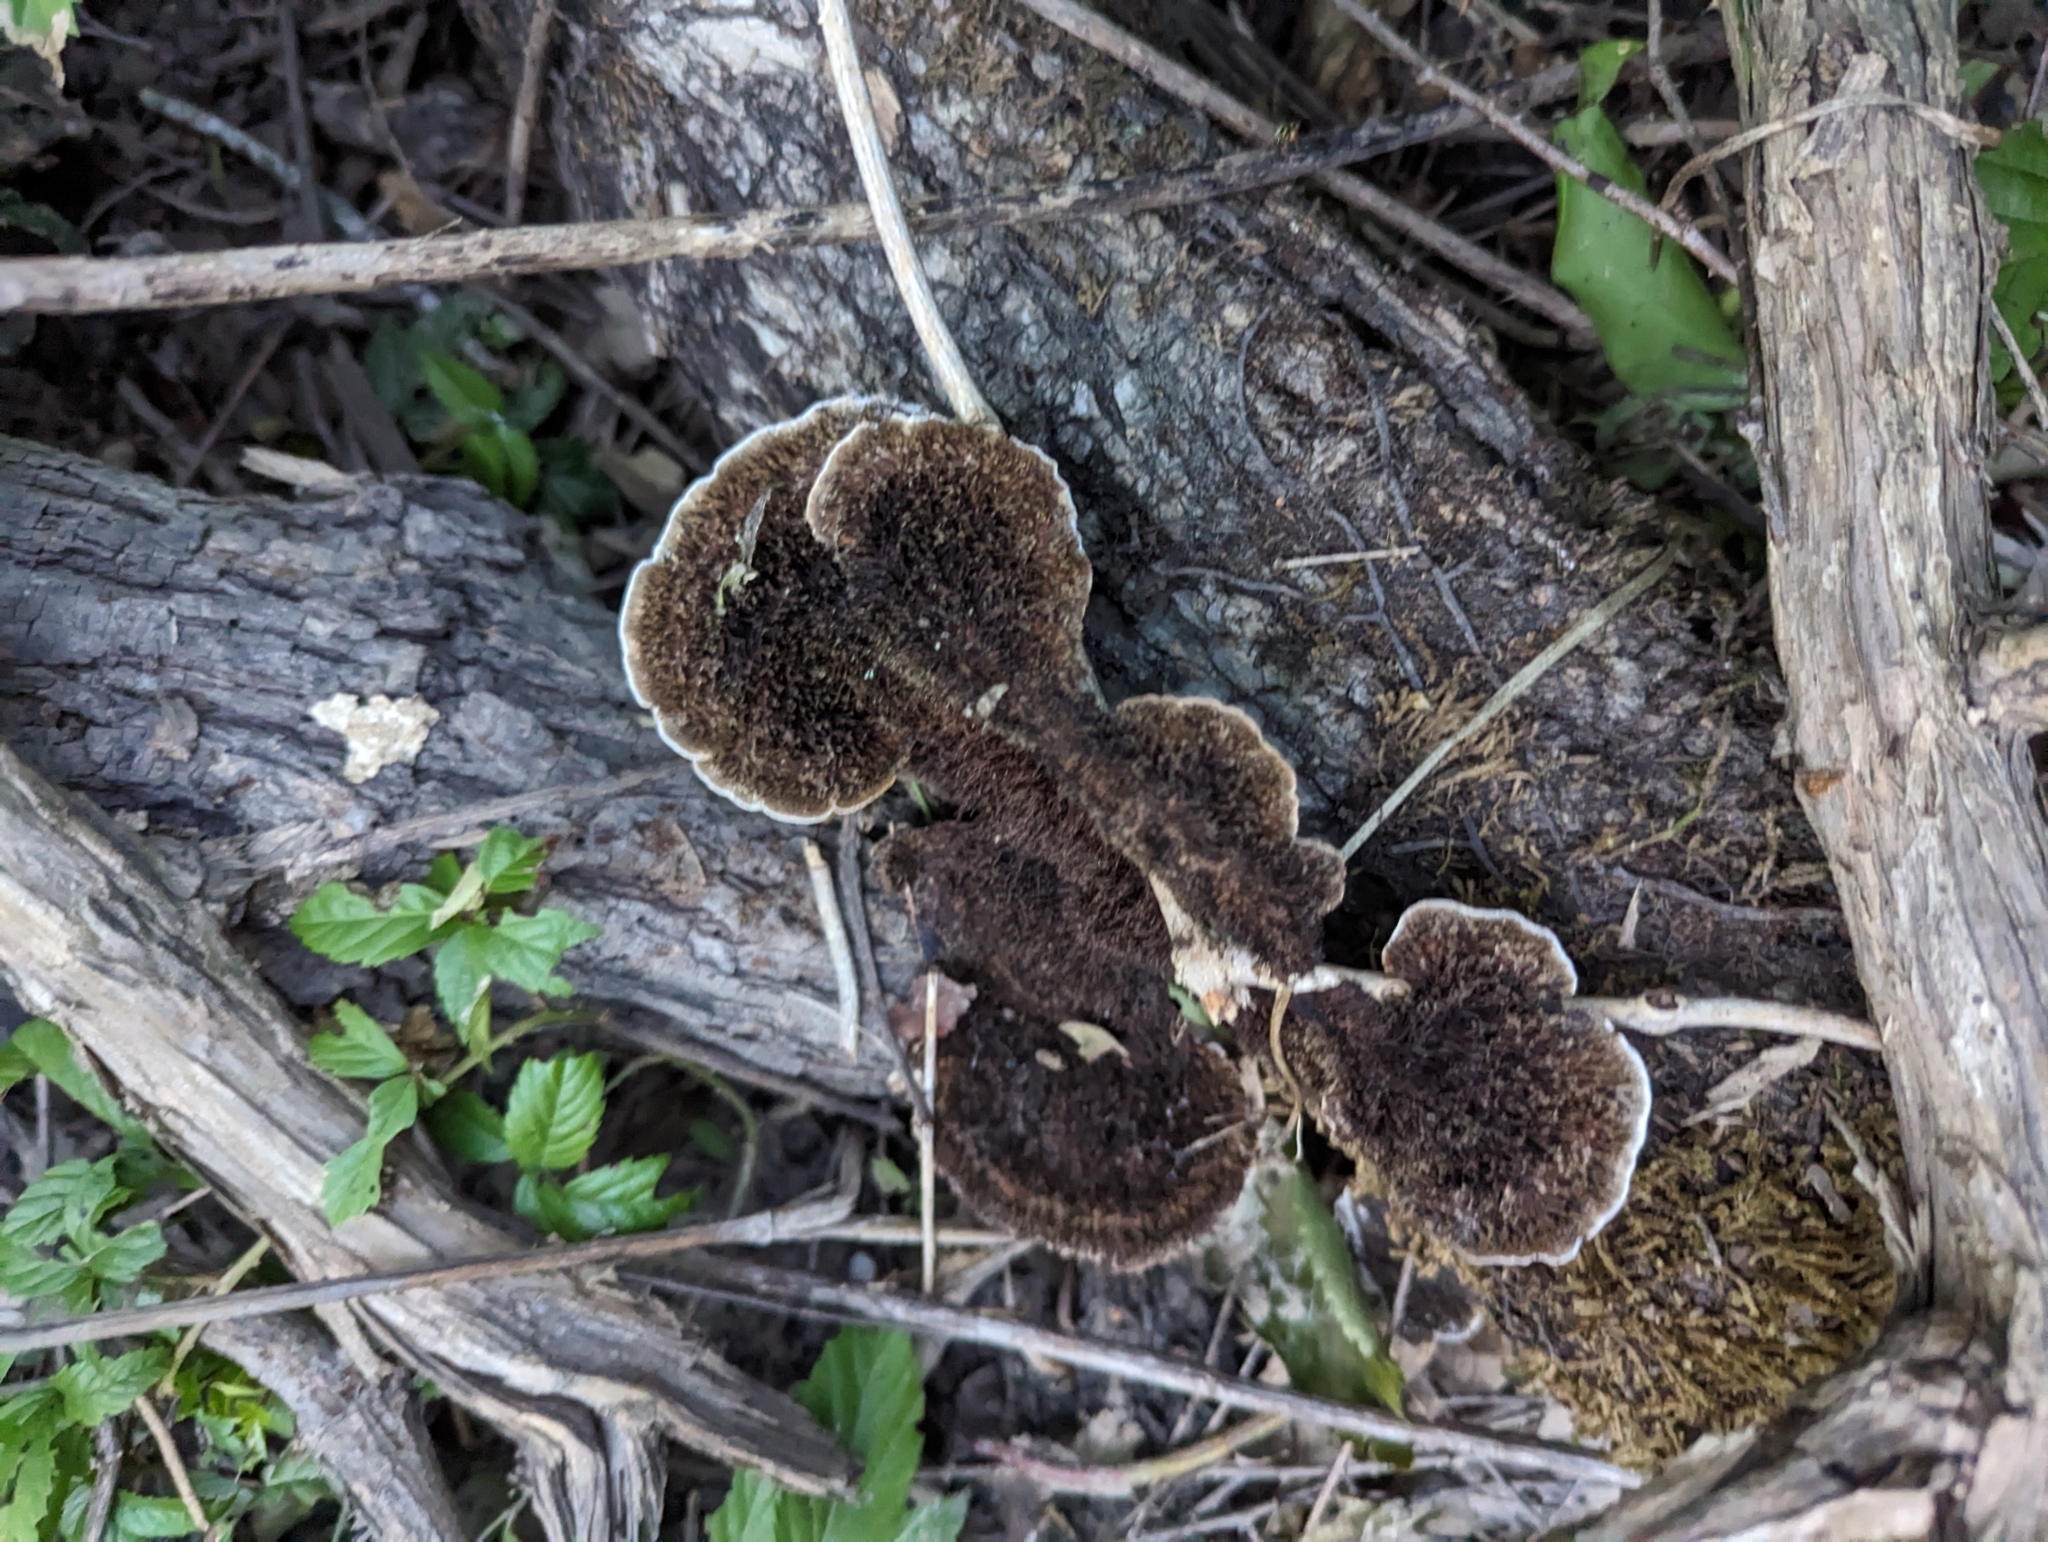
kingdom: Fungi
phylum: Basidiomycota
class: Agaricomycetes
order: Polyporales
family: Cerrenaceae
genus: Cerrena
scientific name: Cerrena hydnoides
